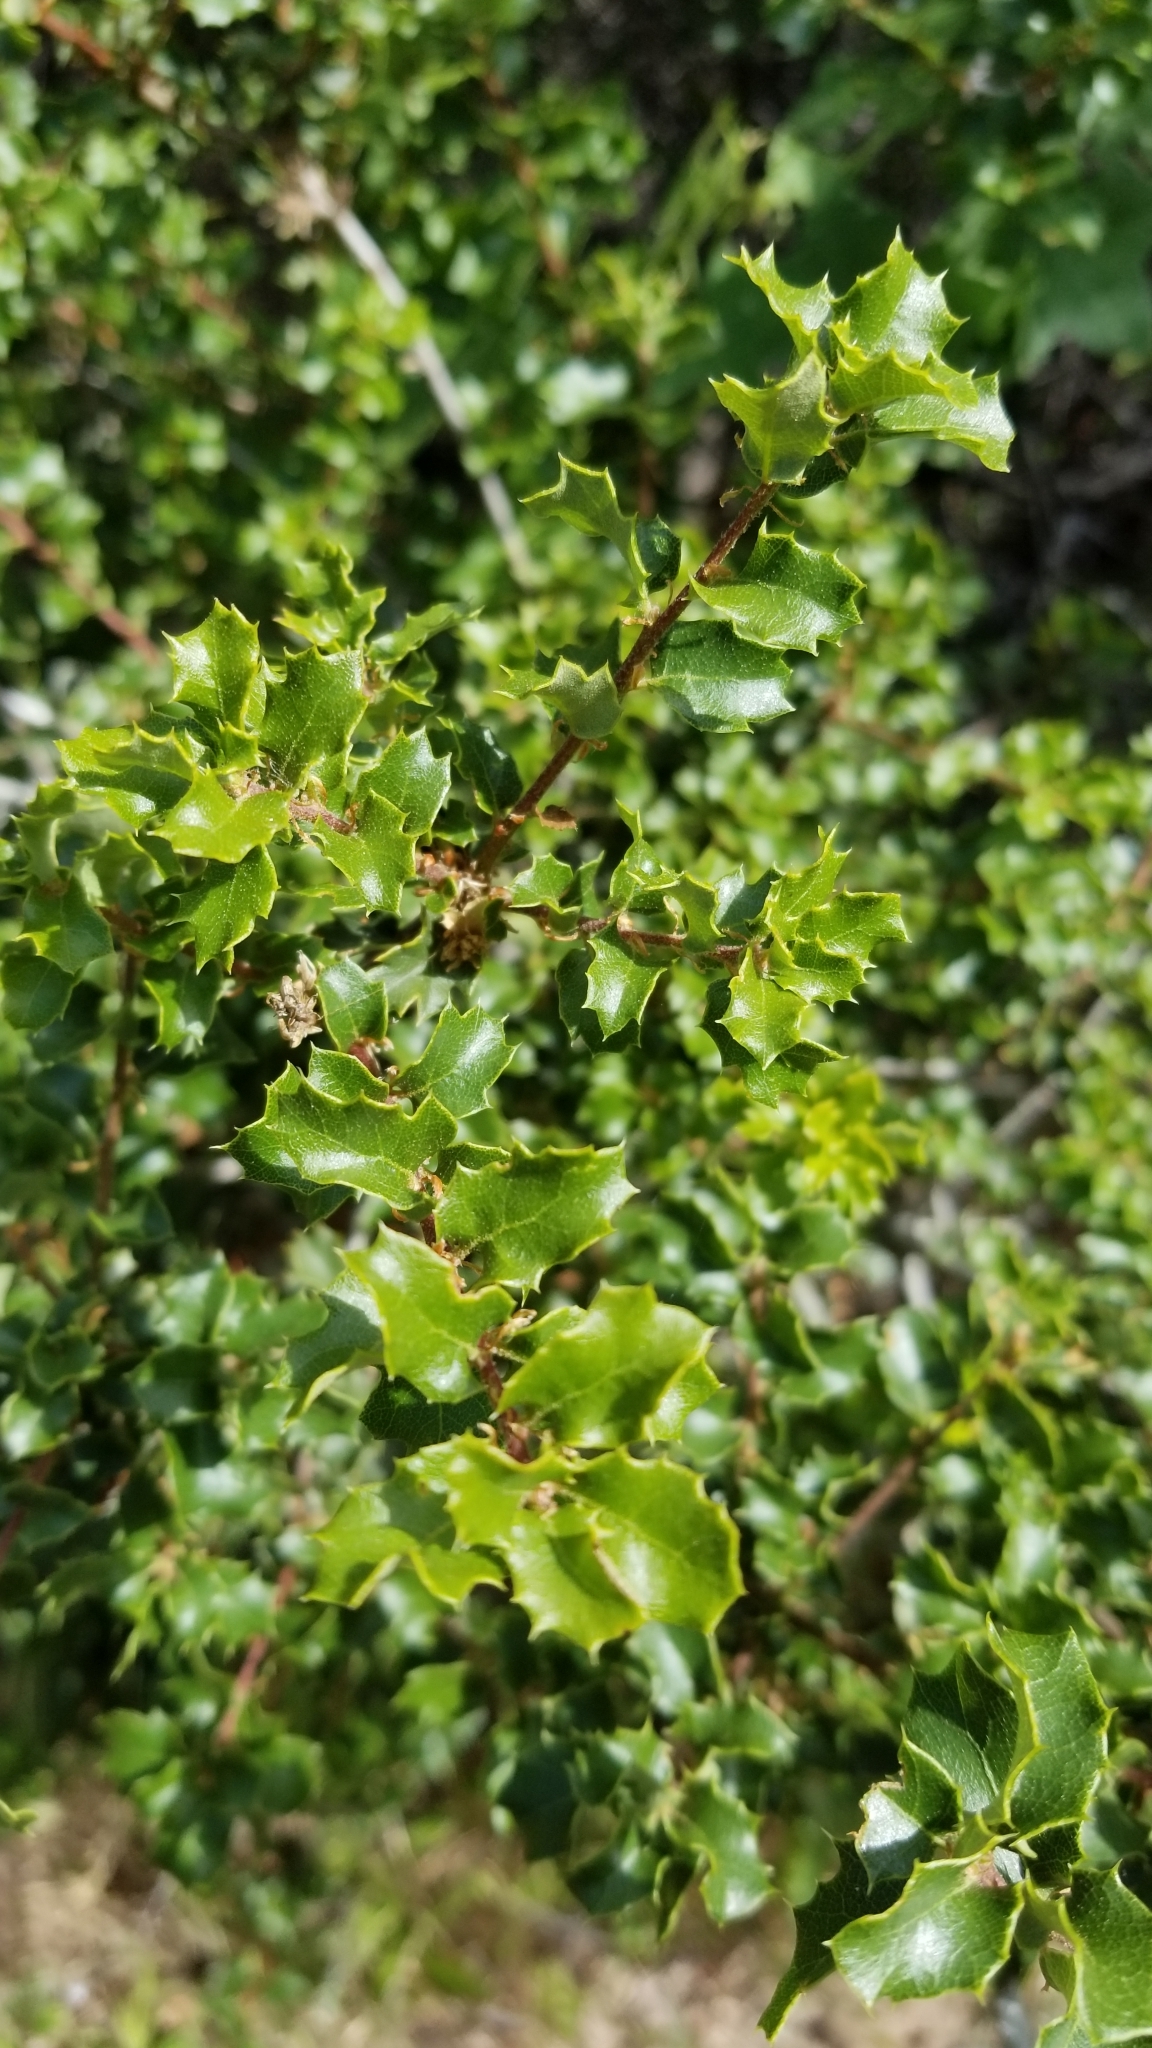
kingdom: Plantae
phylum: Tracheophyta
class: Magnoliopsida
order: Fagales
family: Fagaceae
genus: Quercus
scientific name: Quercus berberidifolia
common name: California scrub oak
